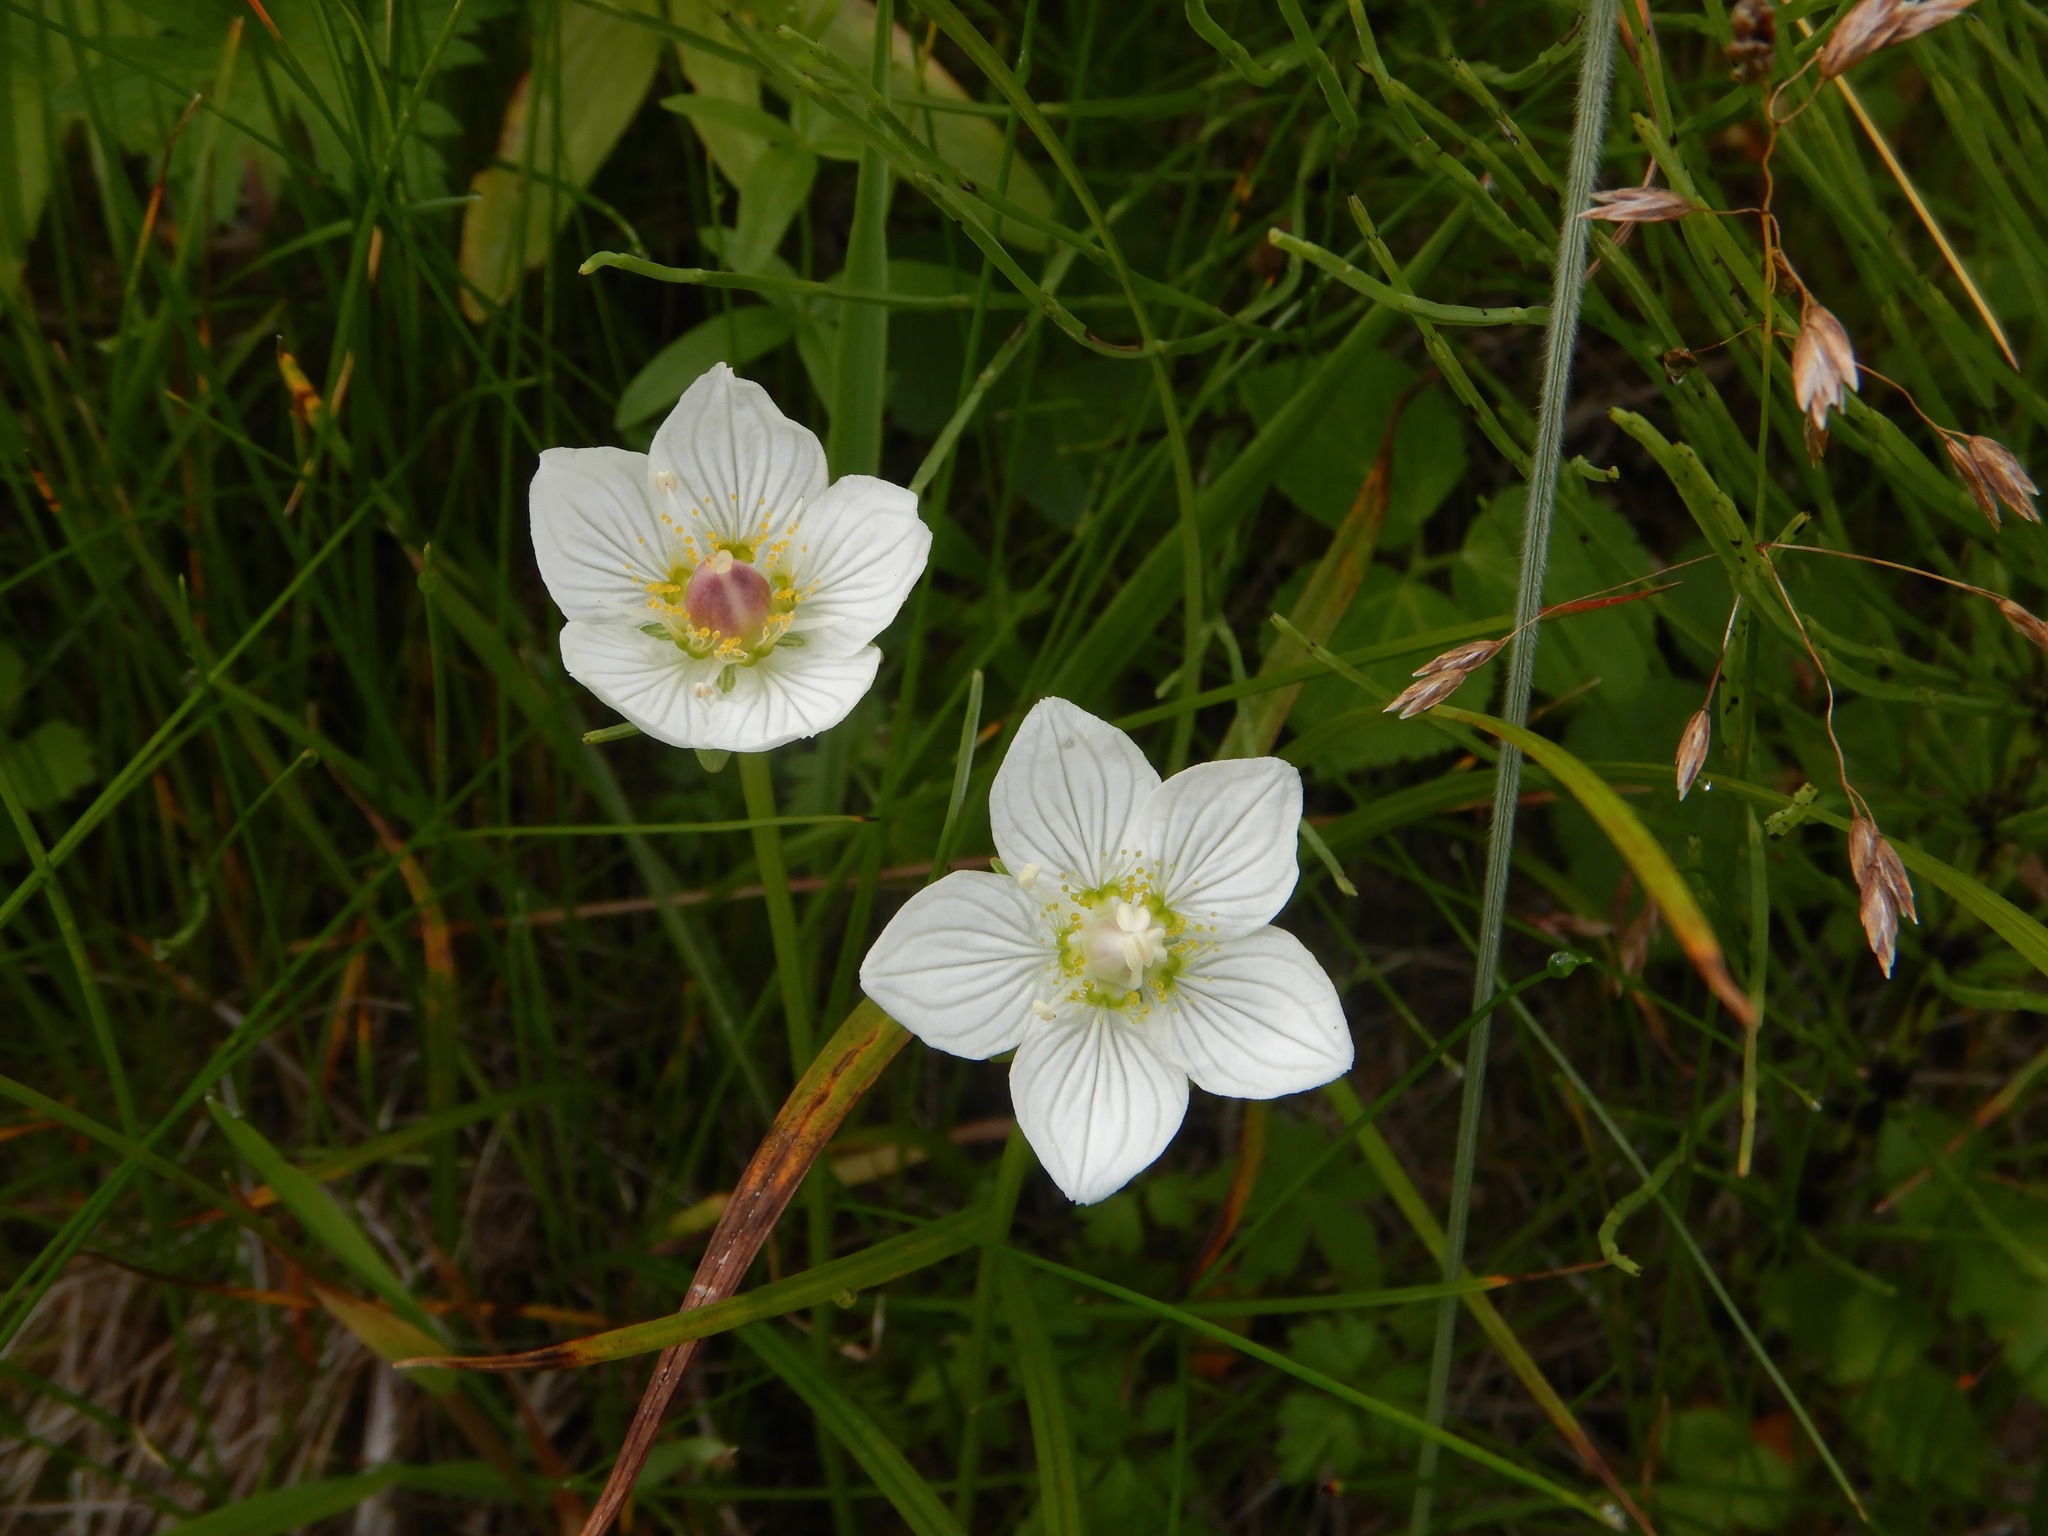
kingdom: Plantae
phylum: Tracheophyta
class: Magnoliopsida
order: Celastrales
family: Parnassiaceae
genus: Parnassia
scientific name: Parnassia palustris
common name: Grass-of-parnassus
